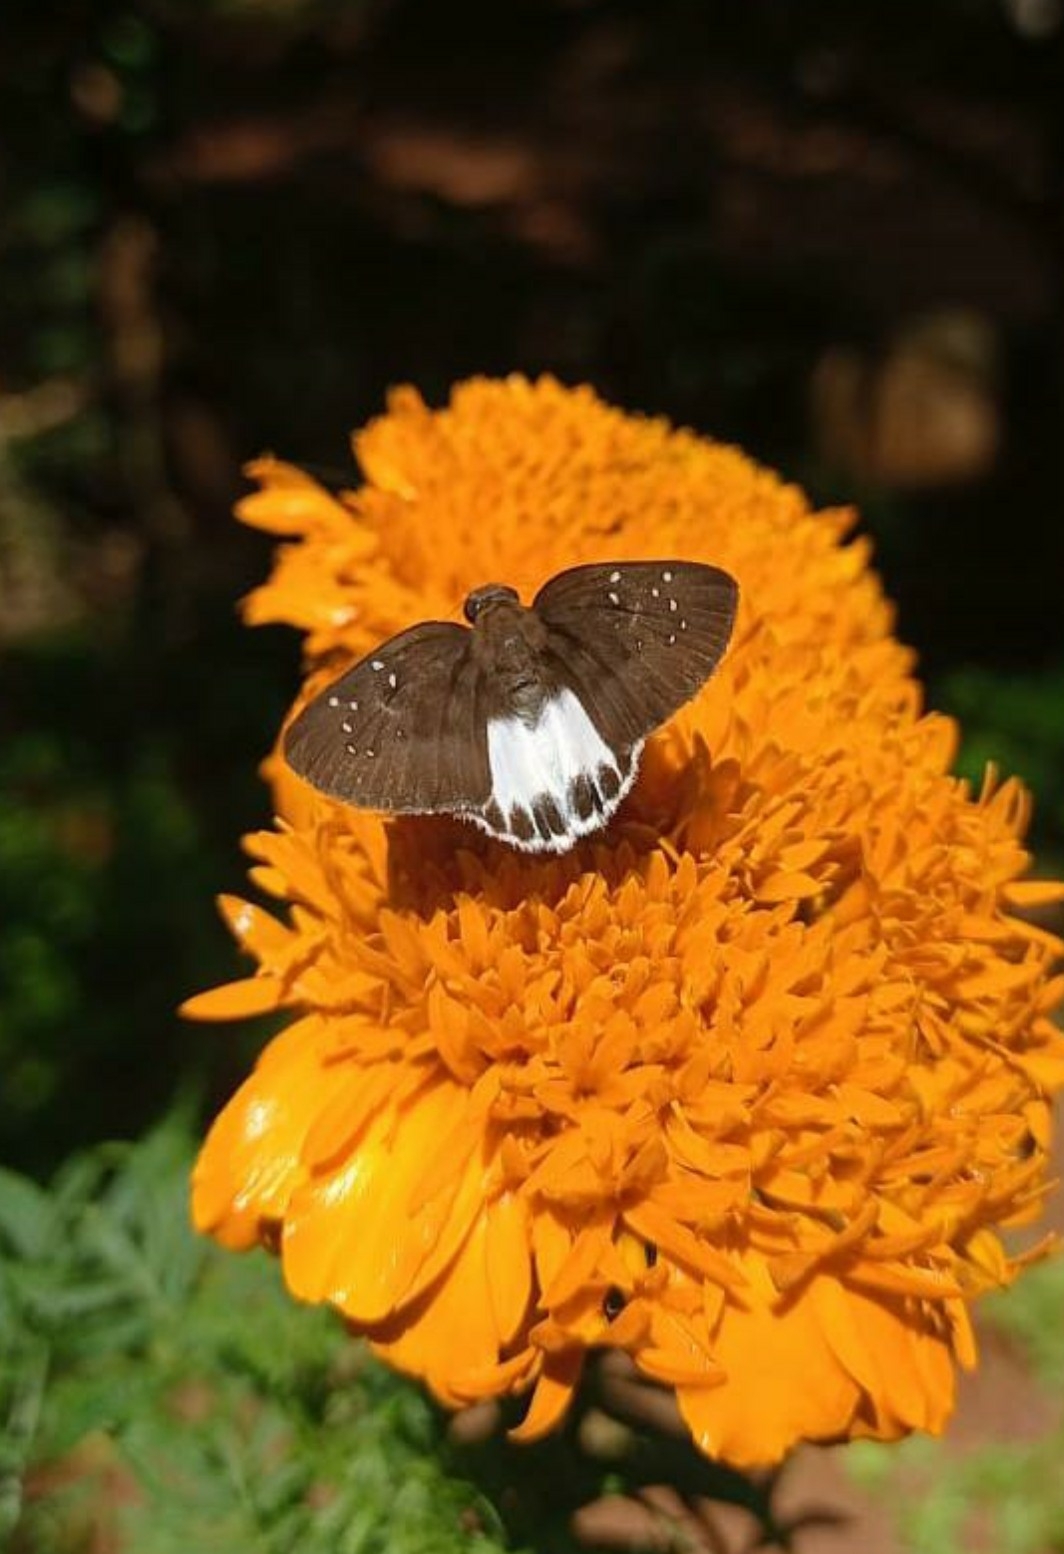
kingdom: Animalia
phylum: Arthropoda
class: Insecta
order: Lepidoptera
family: Hesperiidae
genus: Tagiades
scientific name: Tagiades litigiosa
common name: Water snow flat
